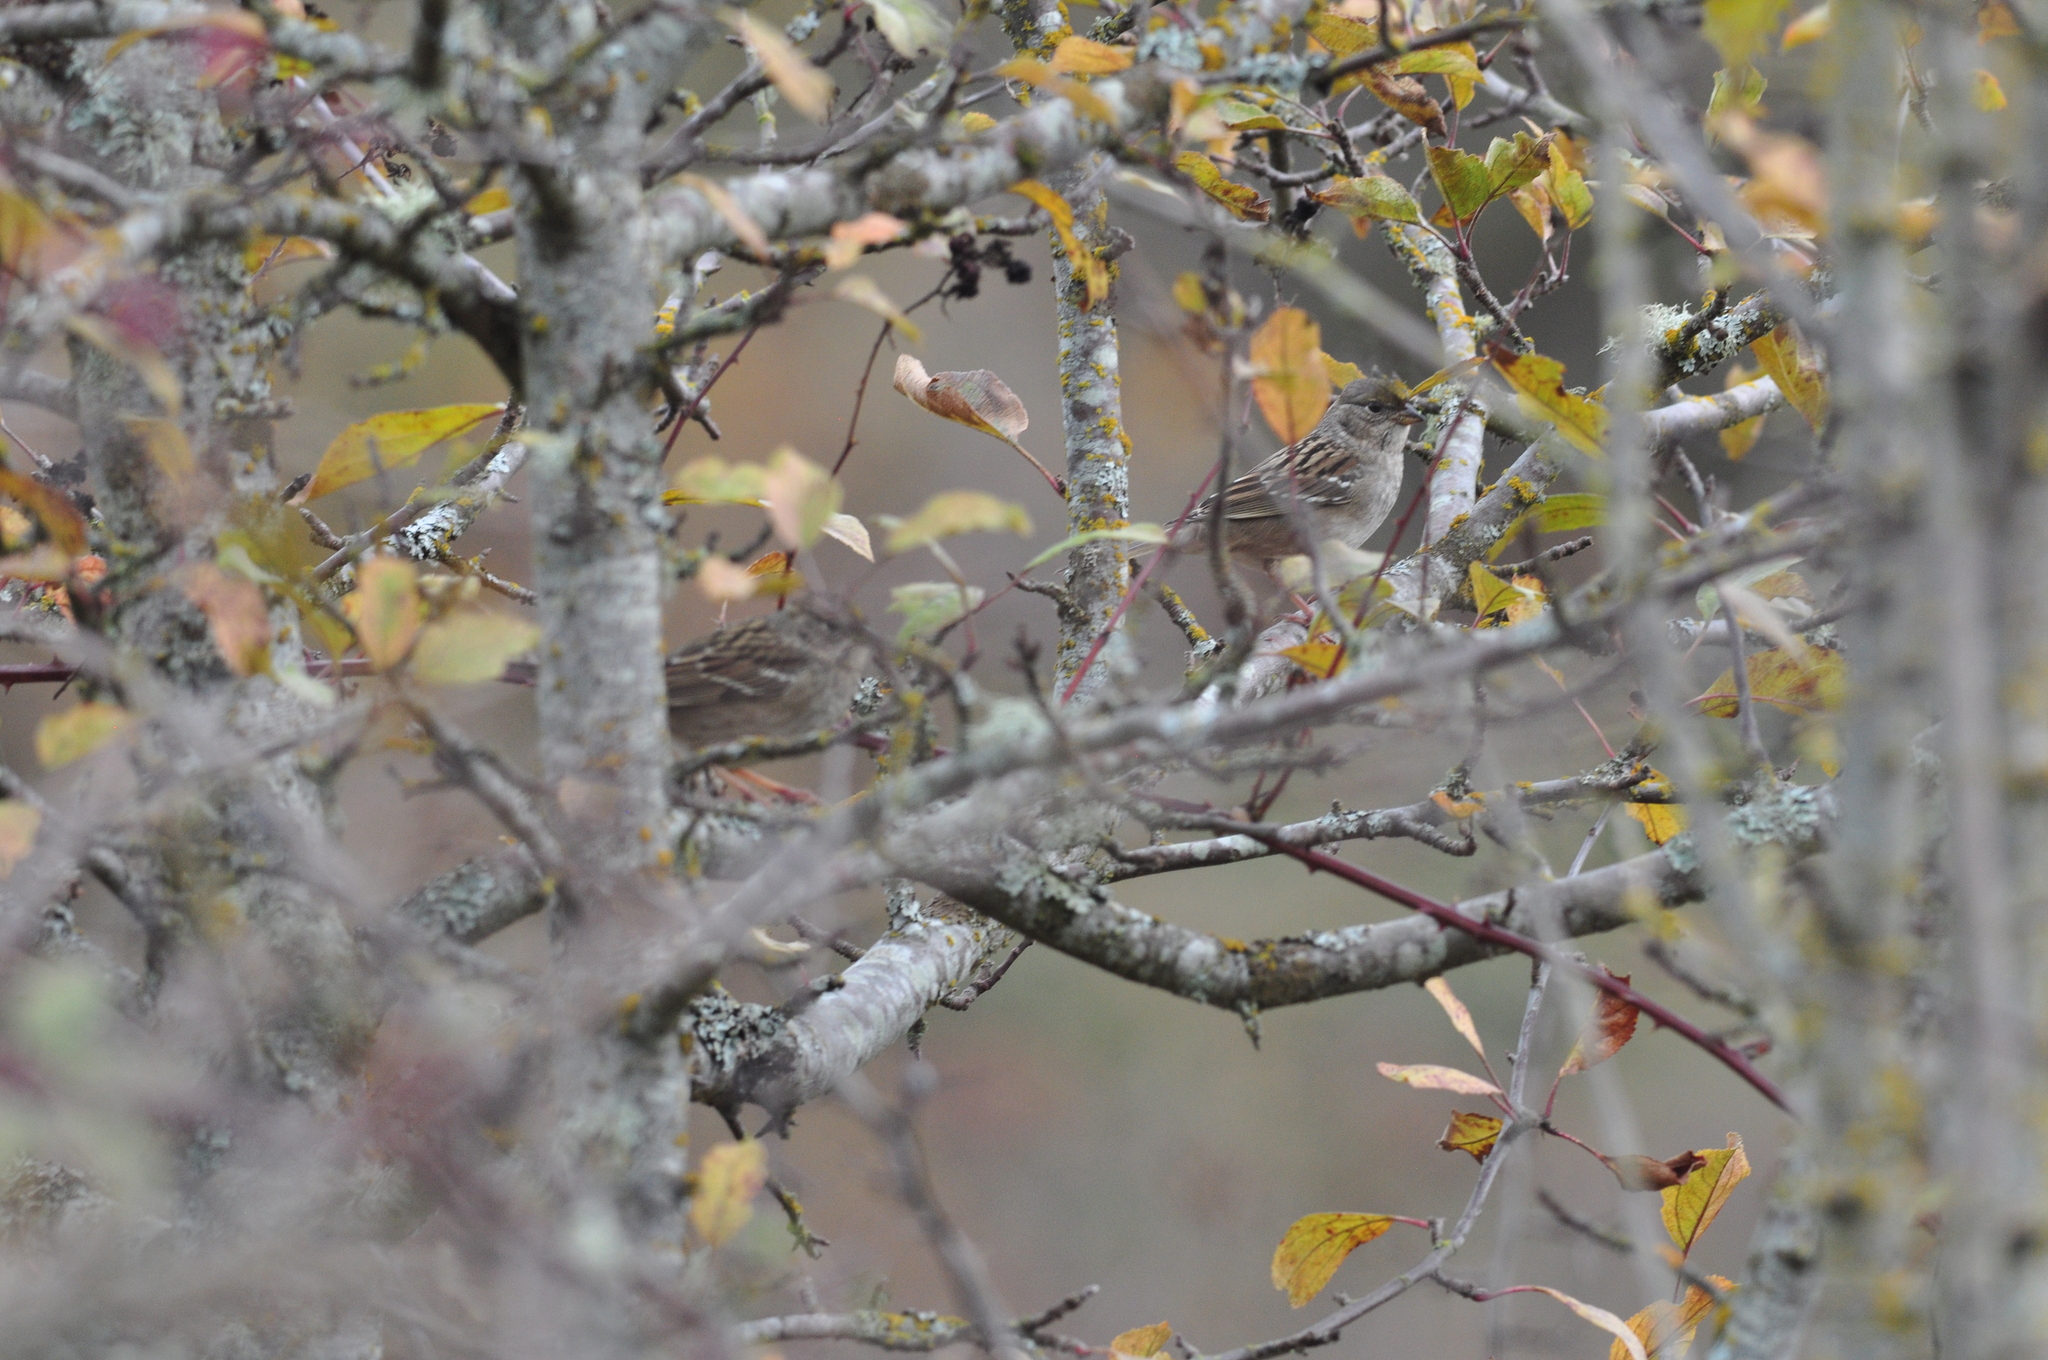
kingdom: Animalia
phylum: Chordata
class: Aves
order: Passeriformes
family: Passerellidae
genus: Zonotrichia
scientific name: Zonotrichia atricapilla
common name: Golden-crowned sparrow
